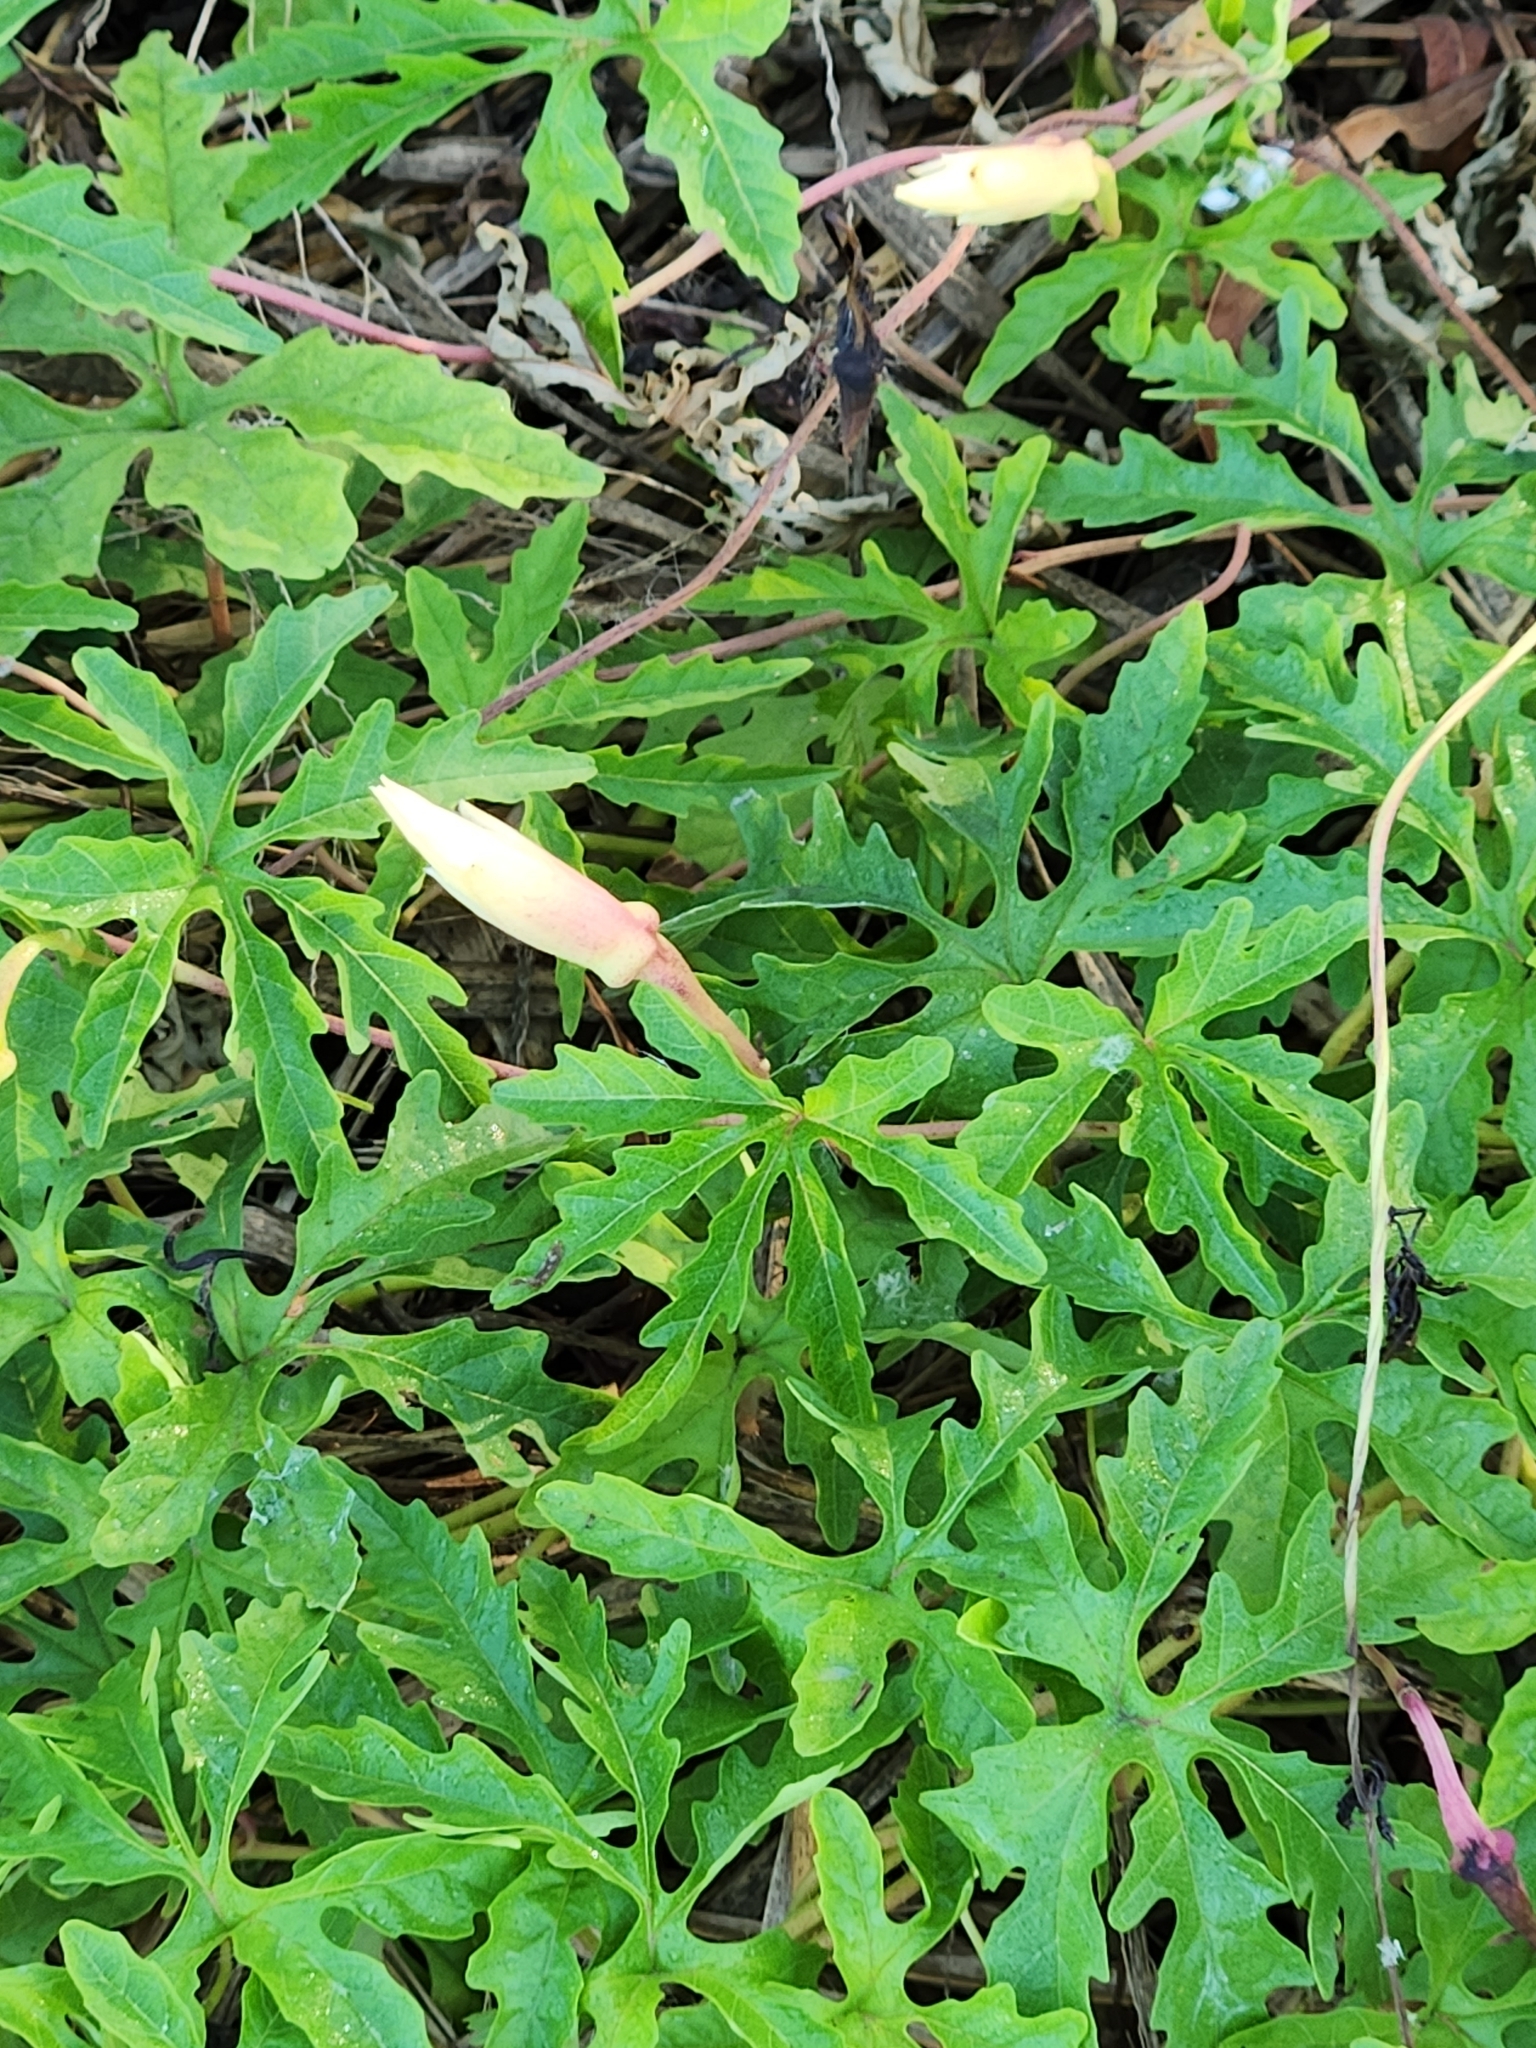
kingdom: Plantae
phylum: Tracheophyta
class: Magnoliopsida
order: Solanales
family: Convolvulaceae
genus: Distimake
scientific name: Distimake dissectus
